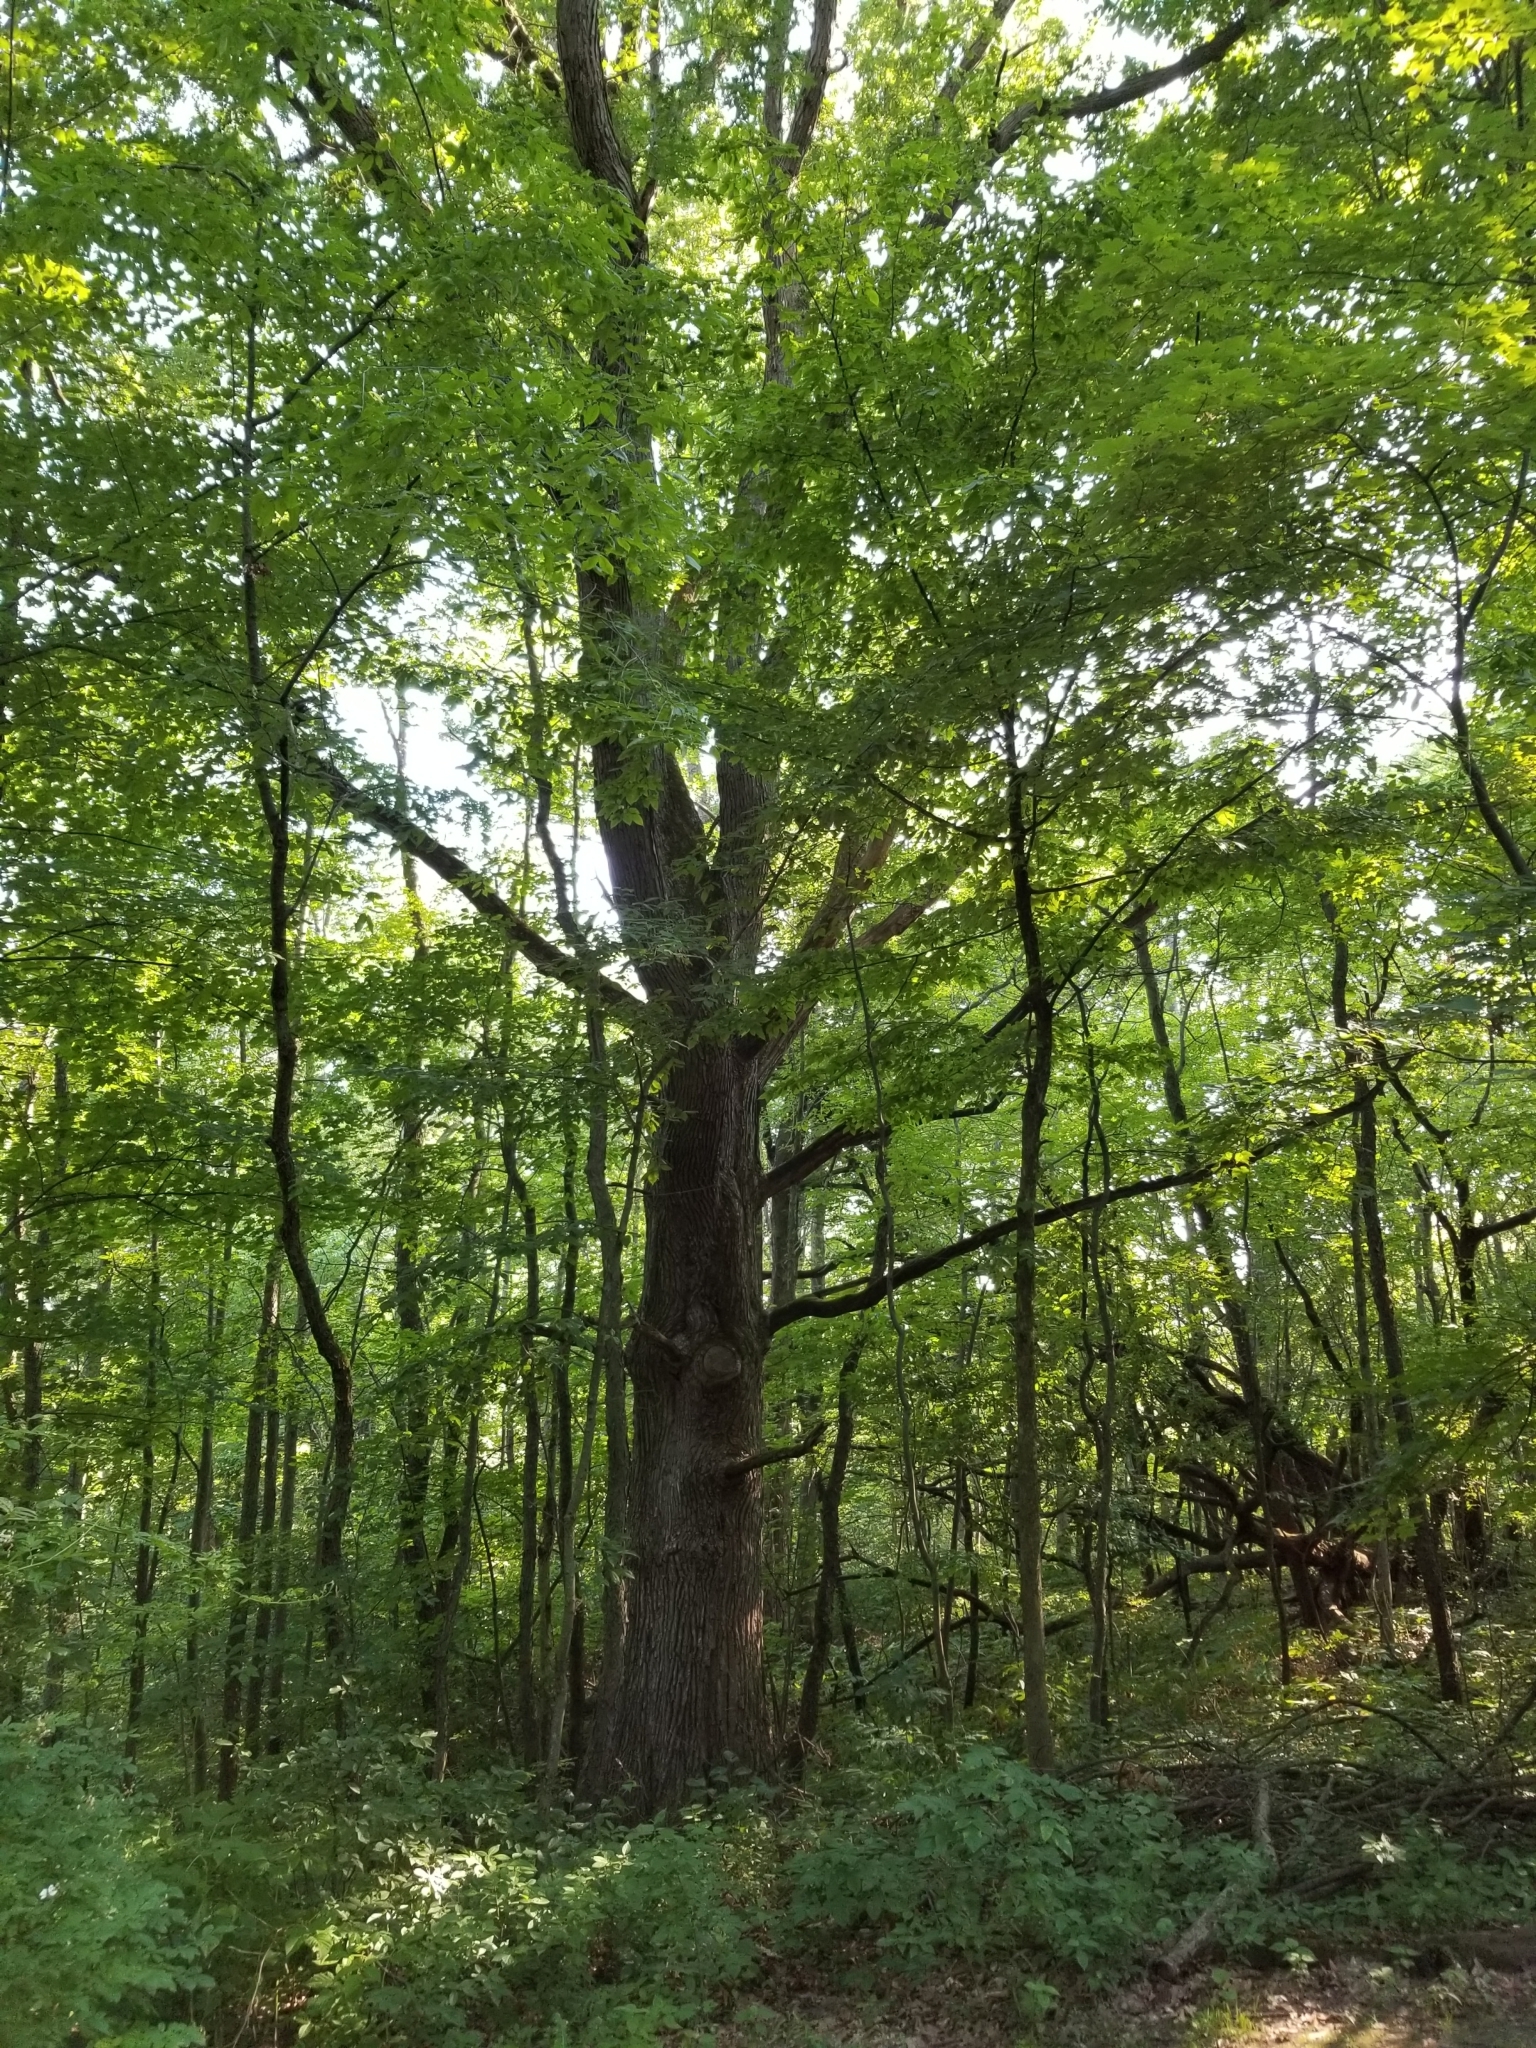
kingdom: Plantae
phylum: Tracheophyta
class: Magnoliopsida
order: Fagales
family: Fagaceae
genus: Quercus
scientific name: Quercus alba
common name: White oak
